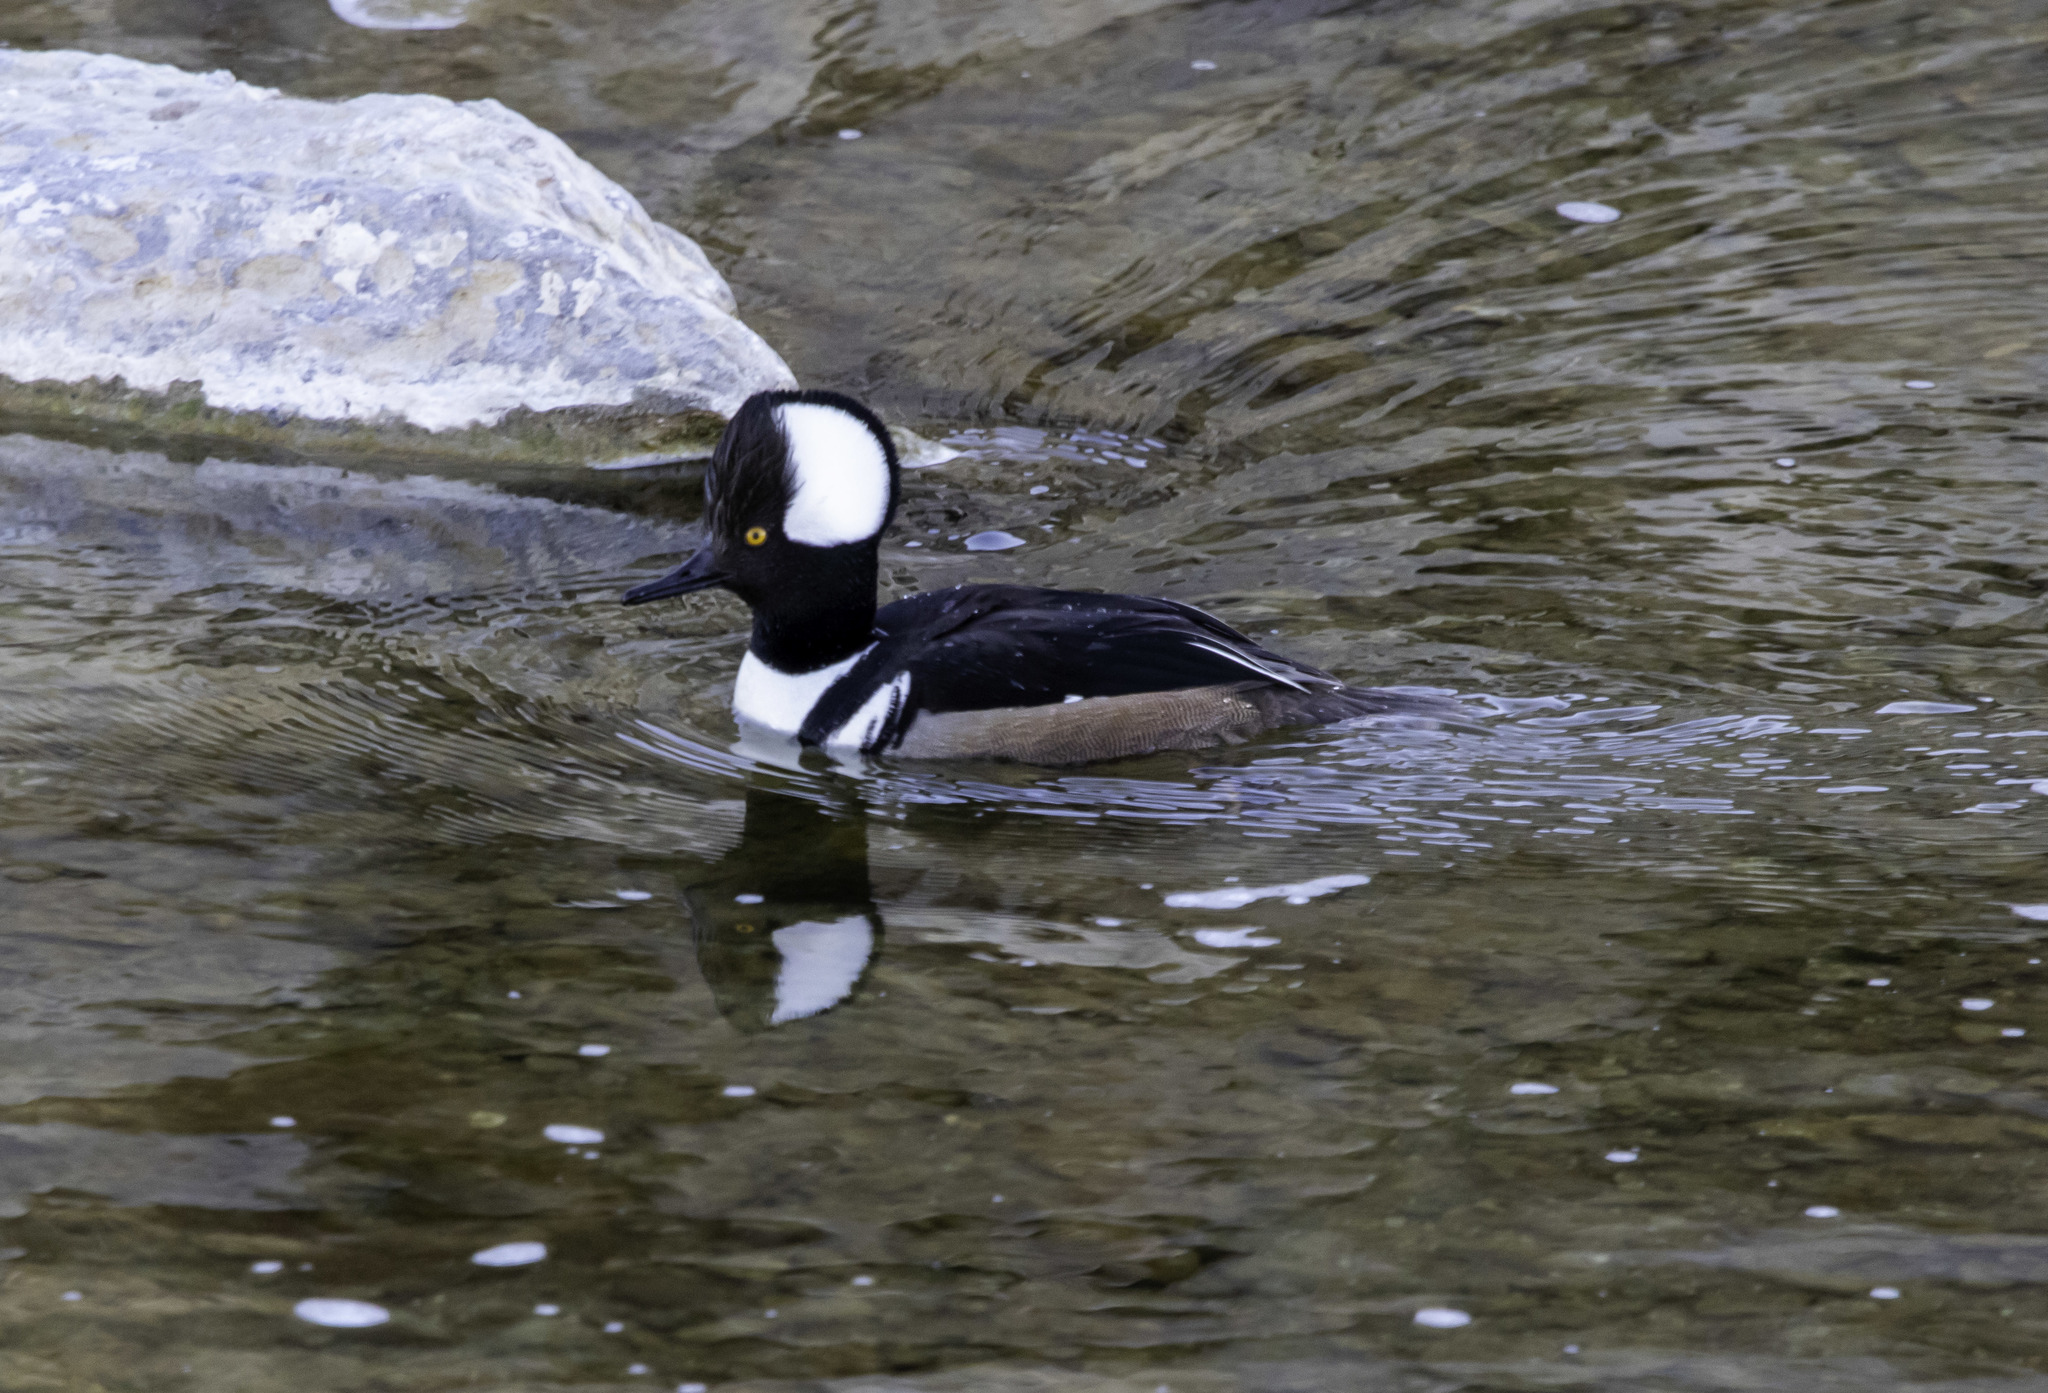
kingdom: Animalia
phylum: Chordata
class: Aves
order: Anseriformes
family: Anatidae
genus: Lophodytes
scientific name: Lophodytes cucullatus
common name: Hooded merganser
